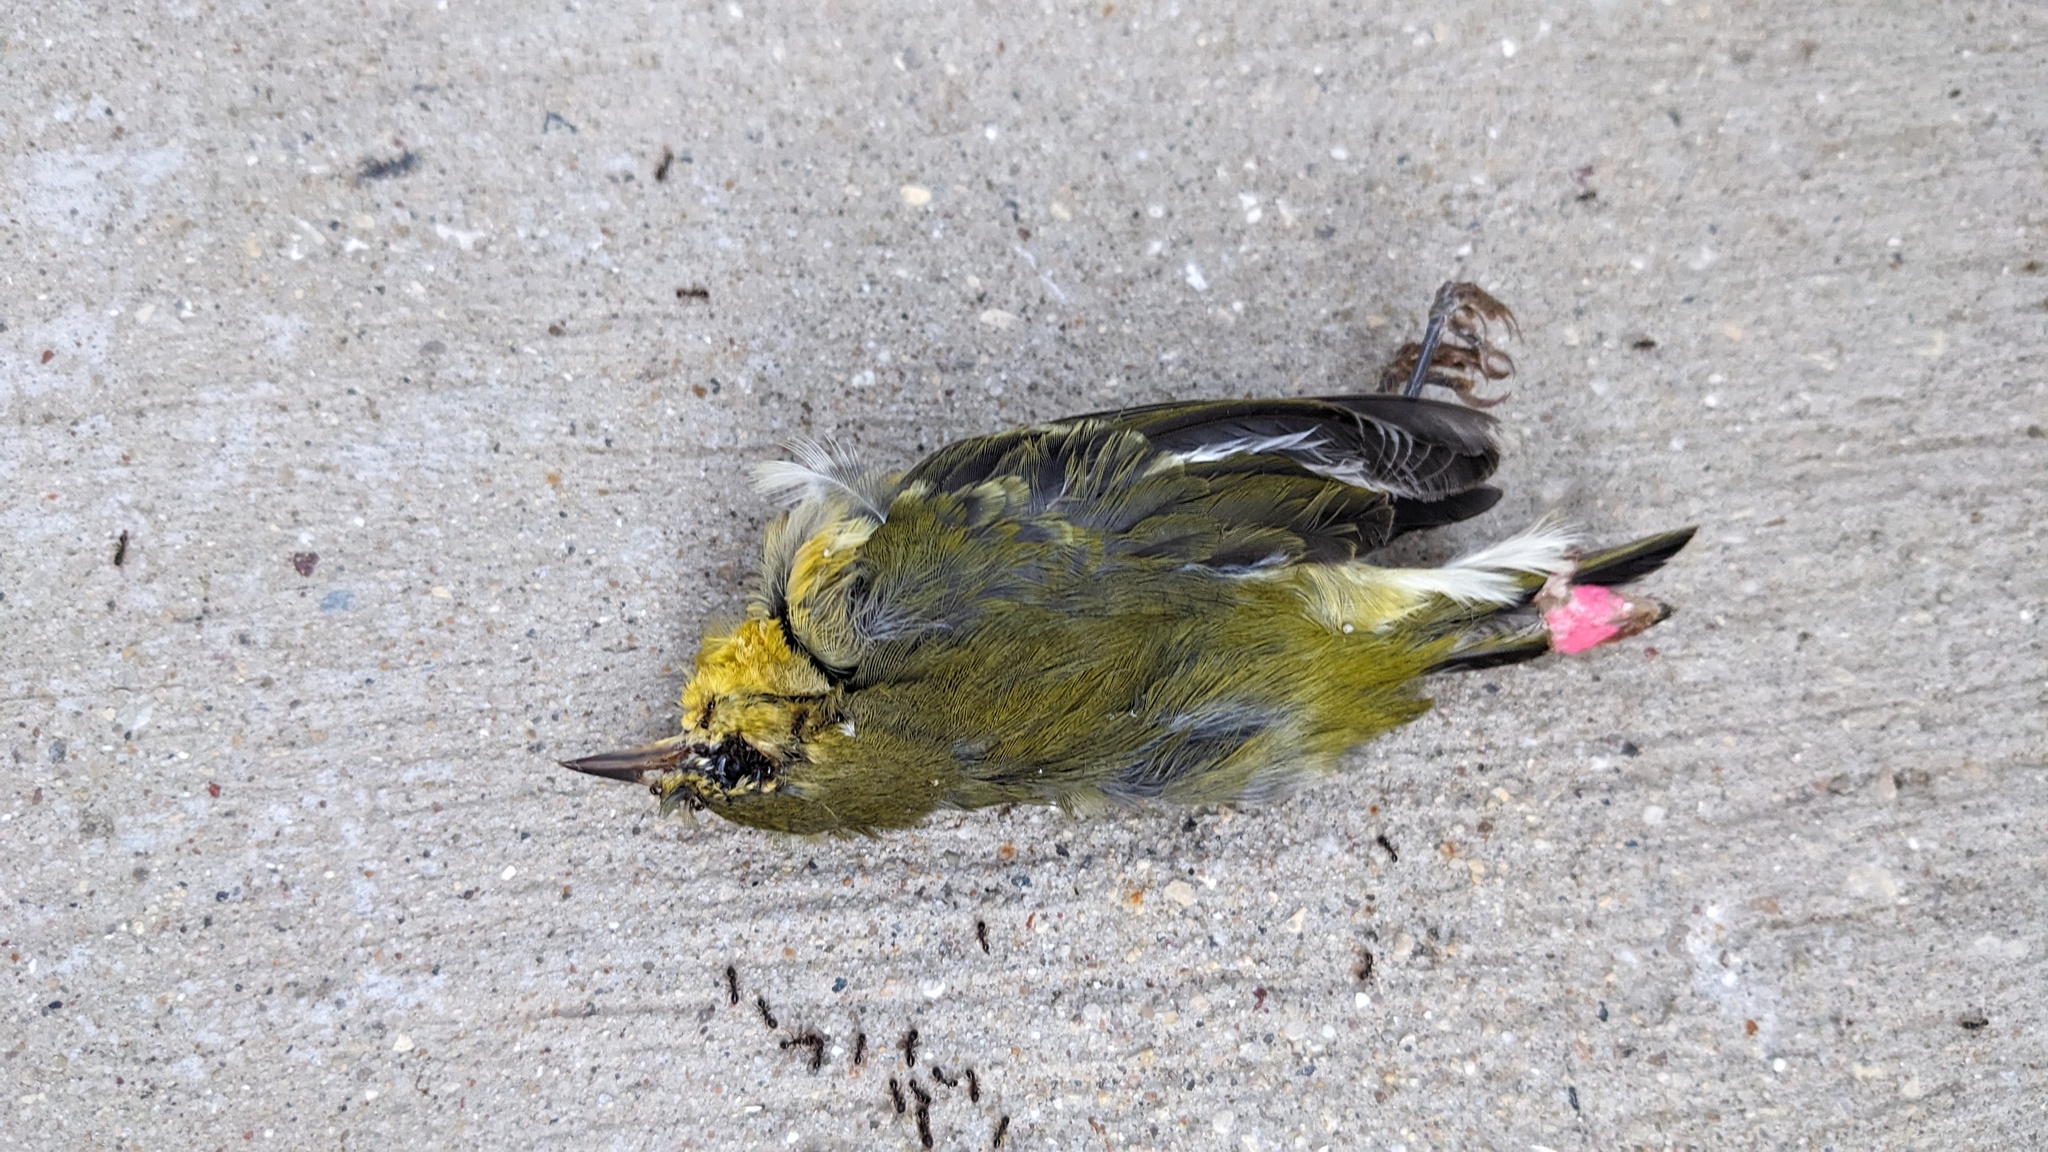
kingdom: Animalia
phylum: Chordata
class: Aves
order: Passeriformes
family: Parulidae
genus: Leiothlypis
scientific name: Leiothlypis peregrina
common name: Tennessee warbler
